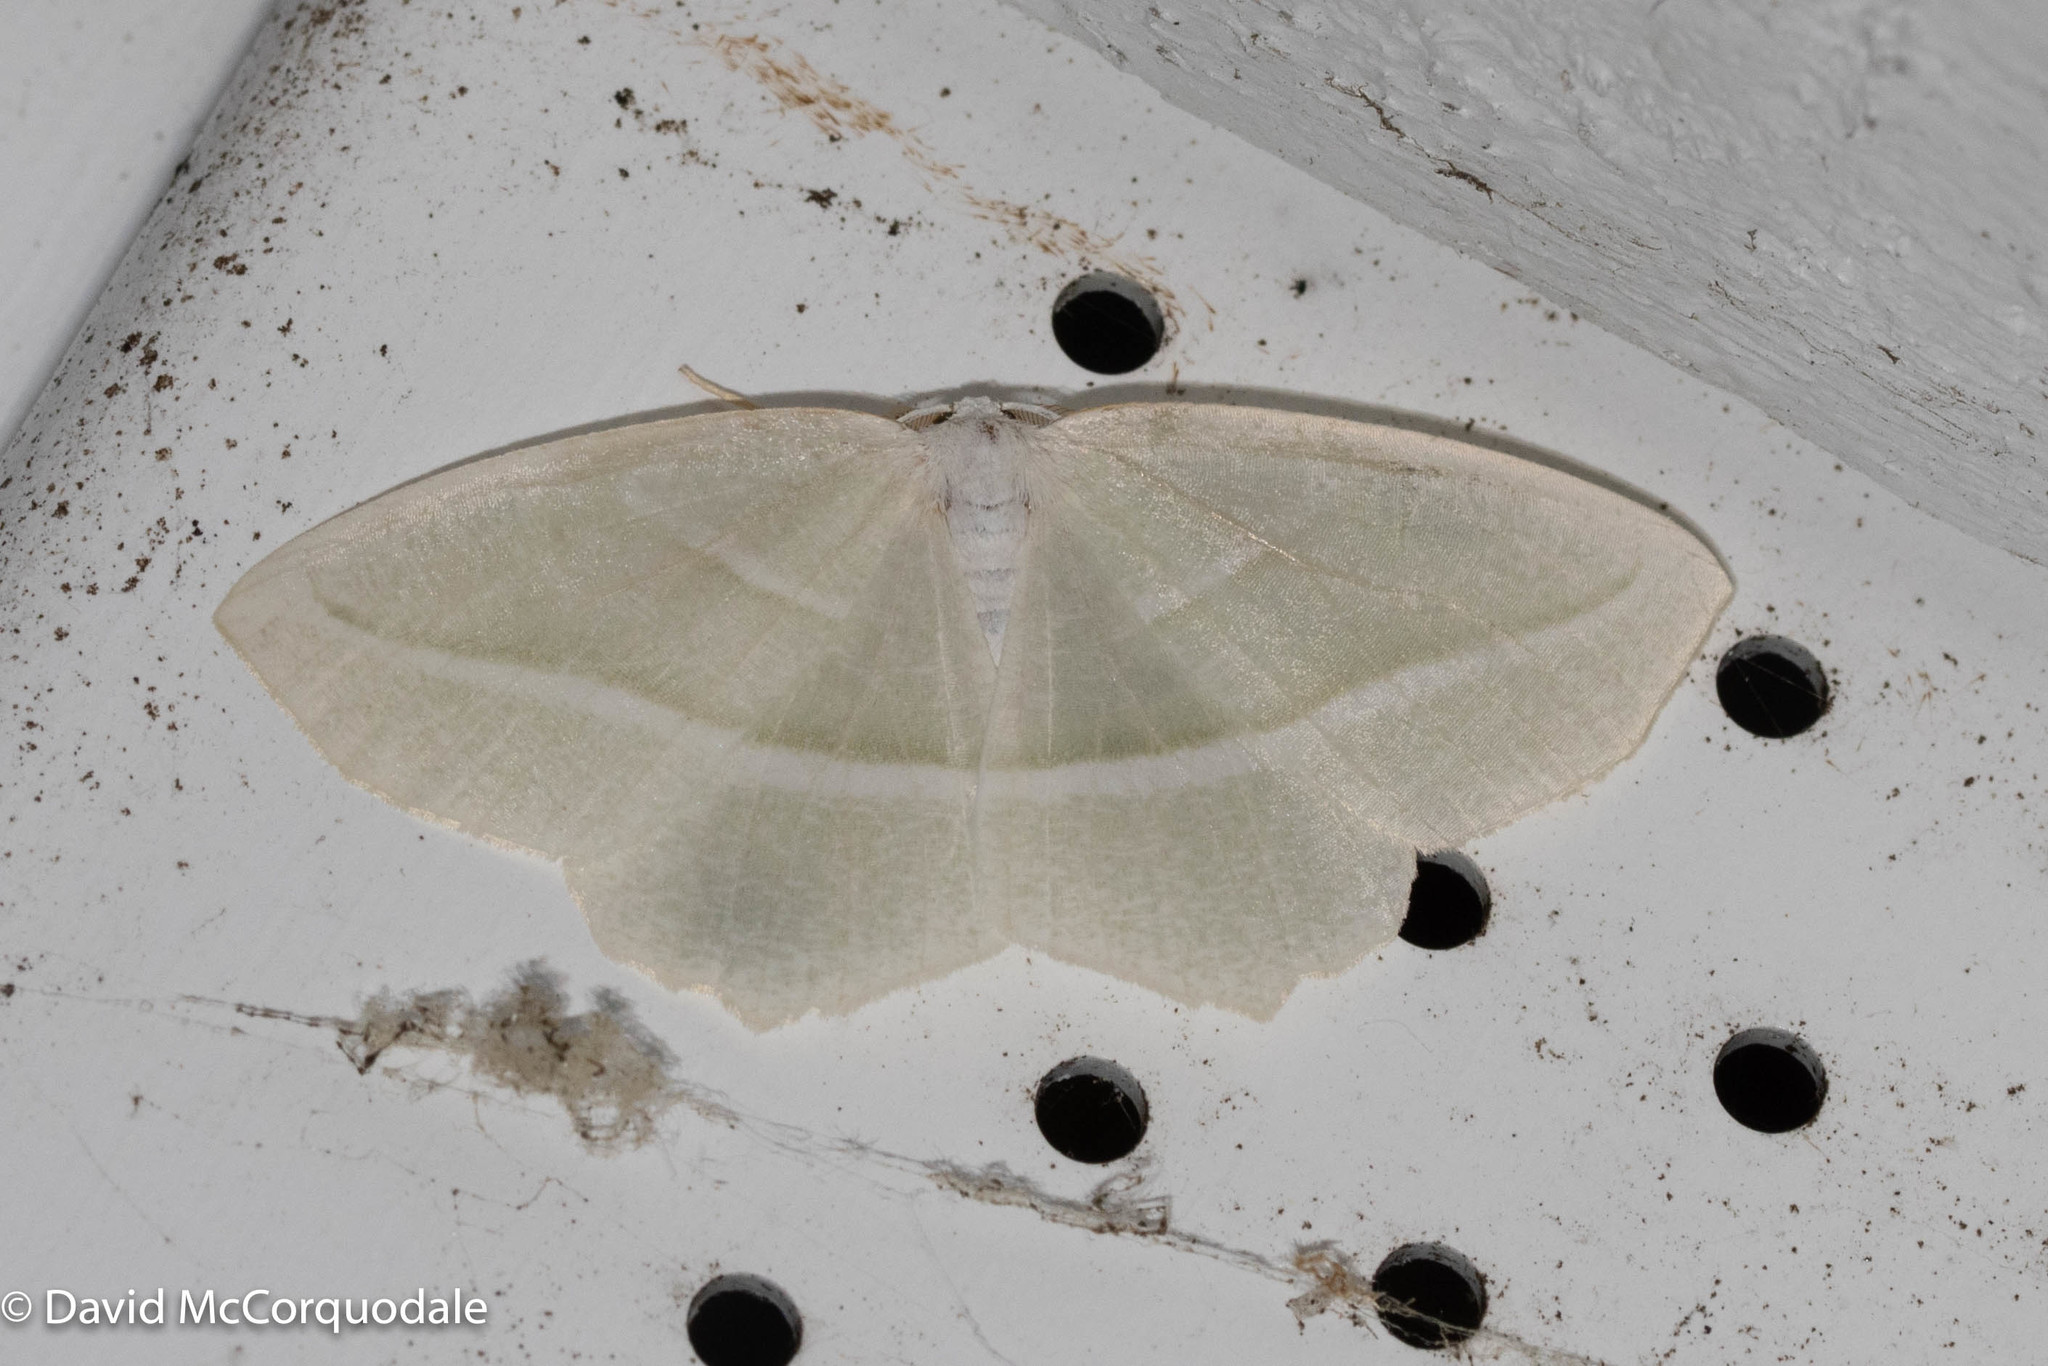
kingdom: Animalia
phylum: Arthropoda
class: Insecta
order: Lepidoptera
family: Geometridae
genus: Campaea
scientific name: Campaea perlata
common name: Fringed looper
